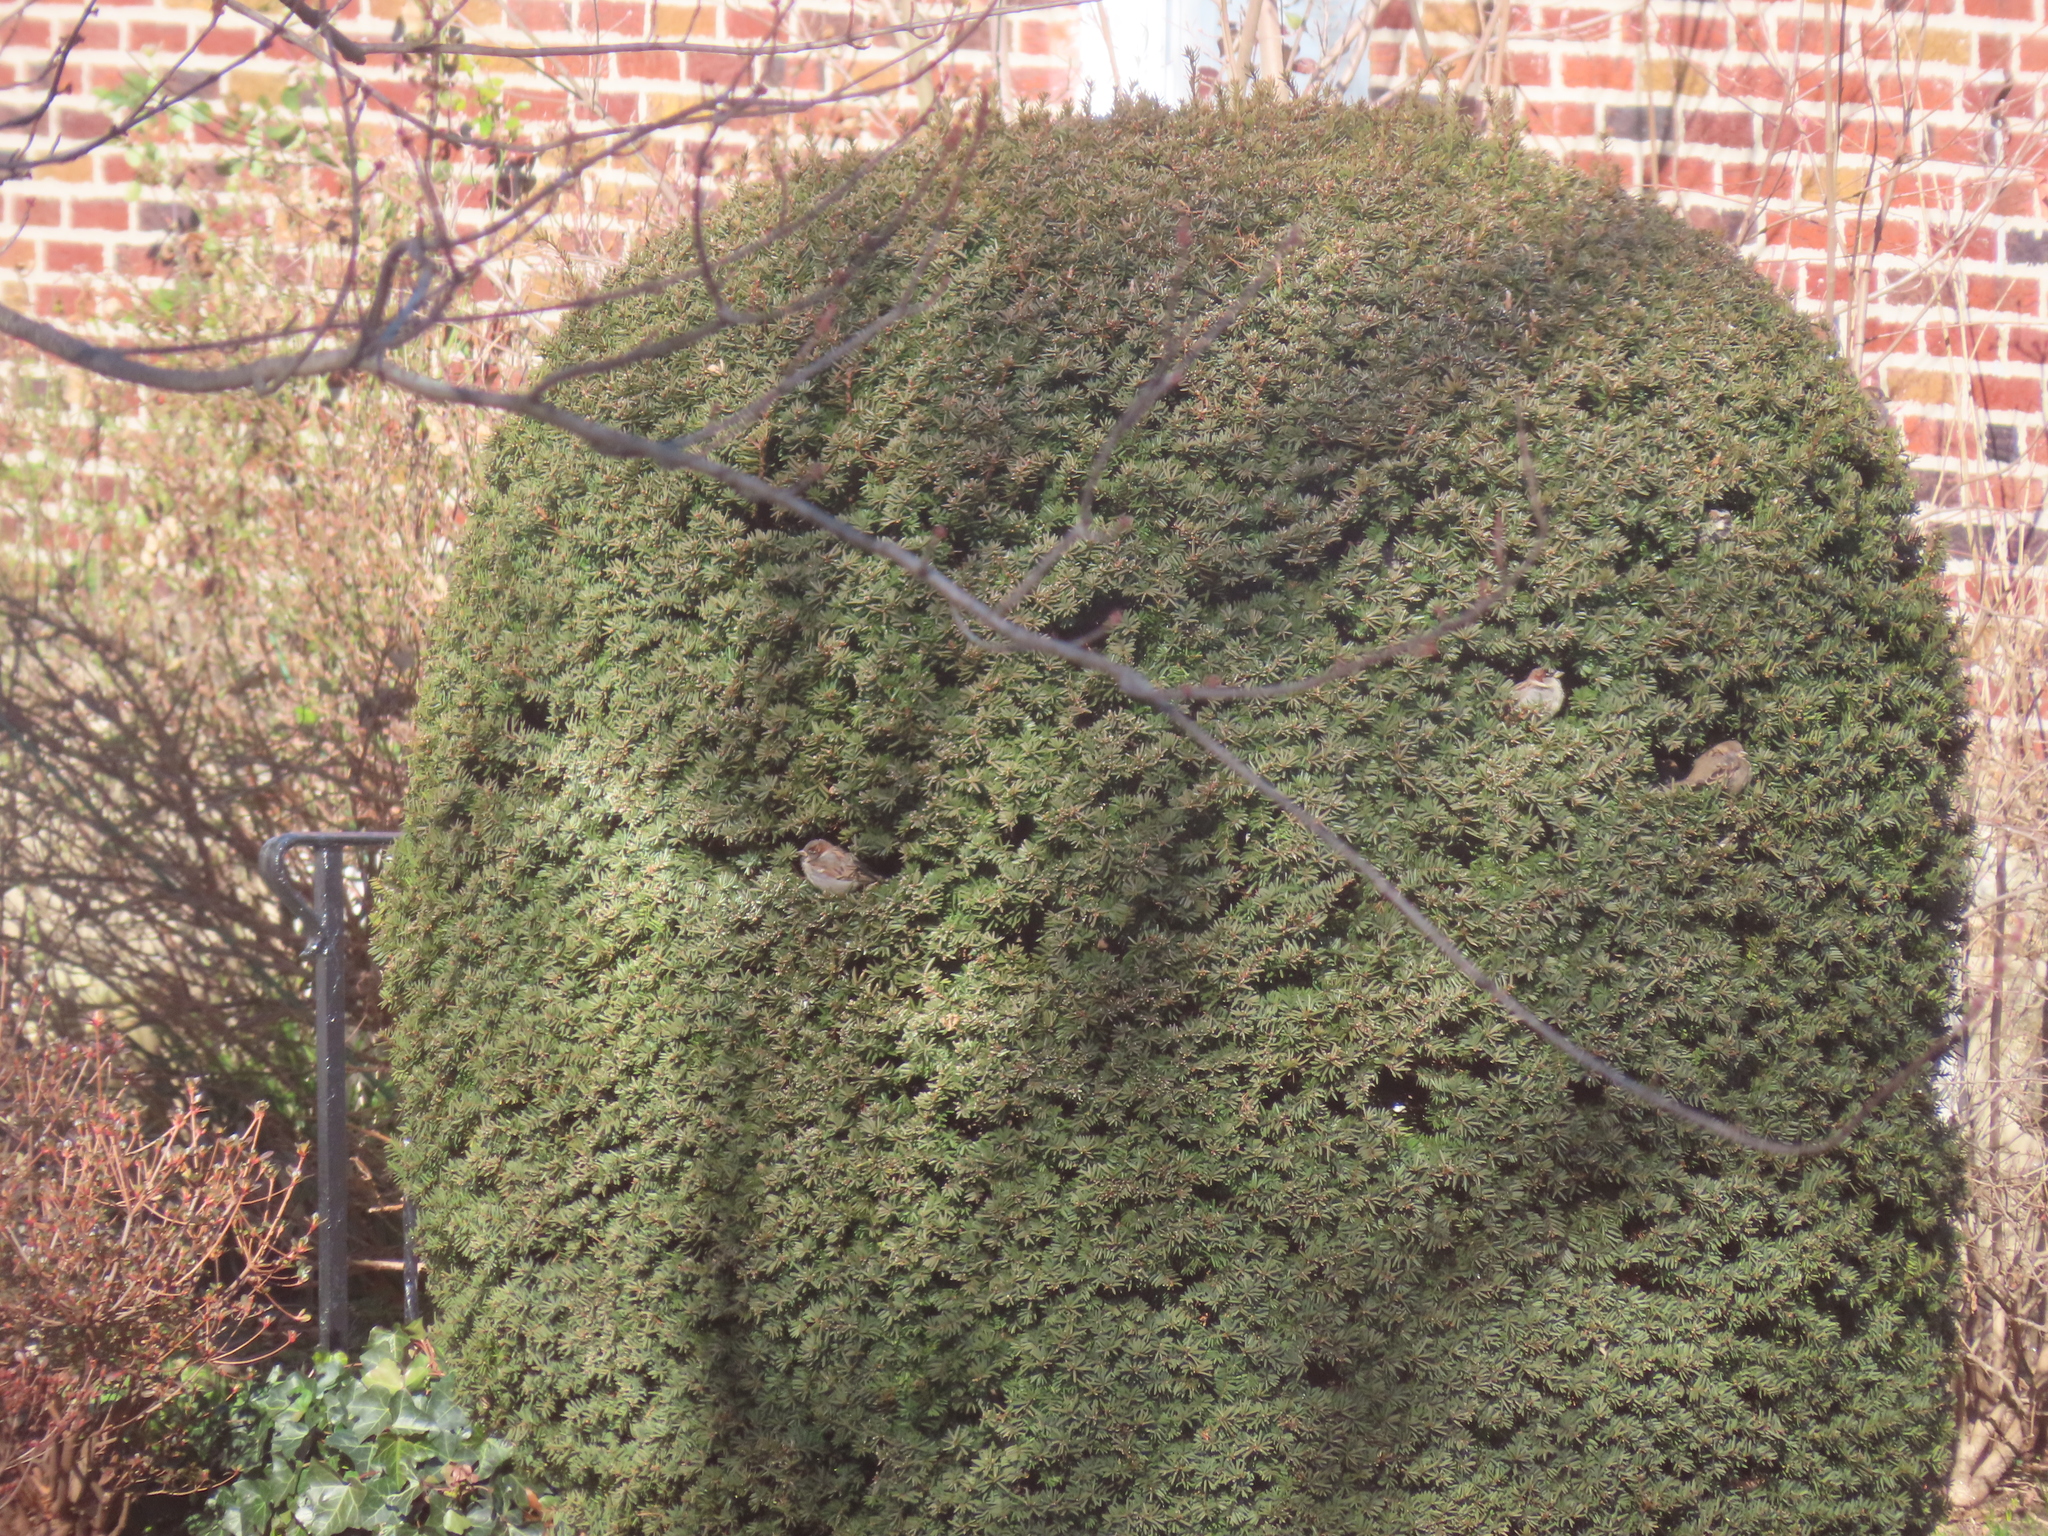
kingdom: Animalia
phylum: Chordata
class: Aves
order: Passeriformes
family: Passeridae
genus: Passer
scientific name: Passer domesticus
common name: House sparrow
